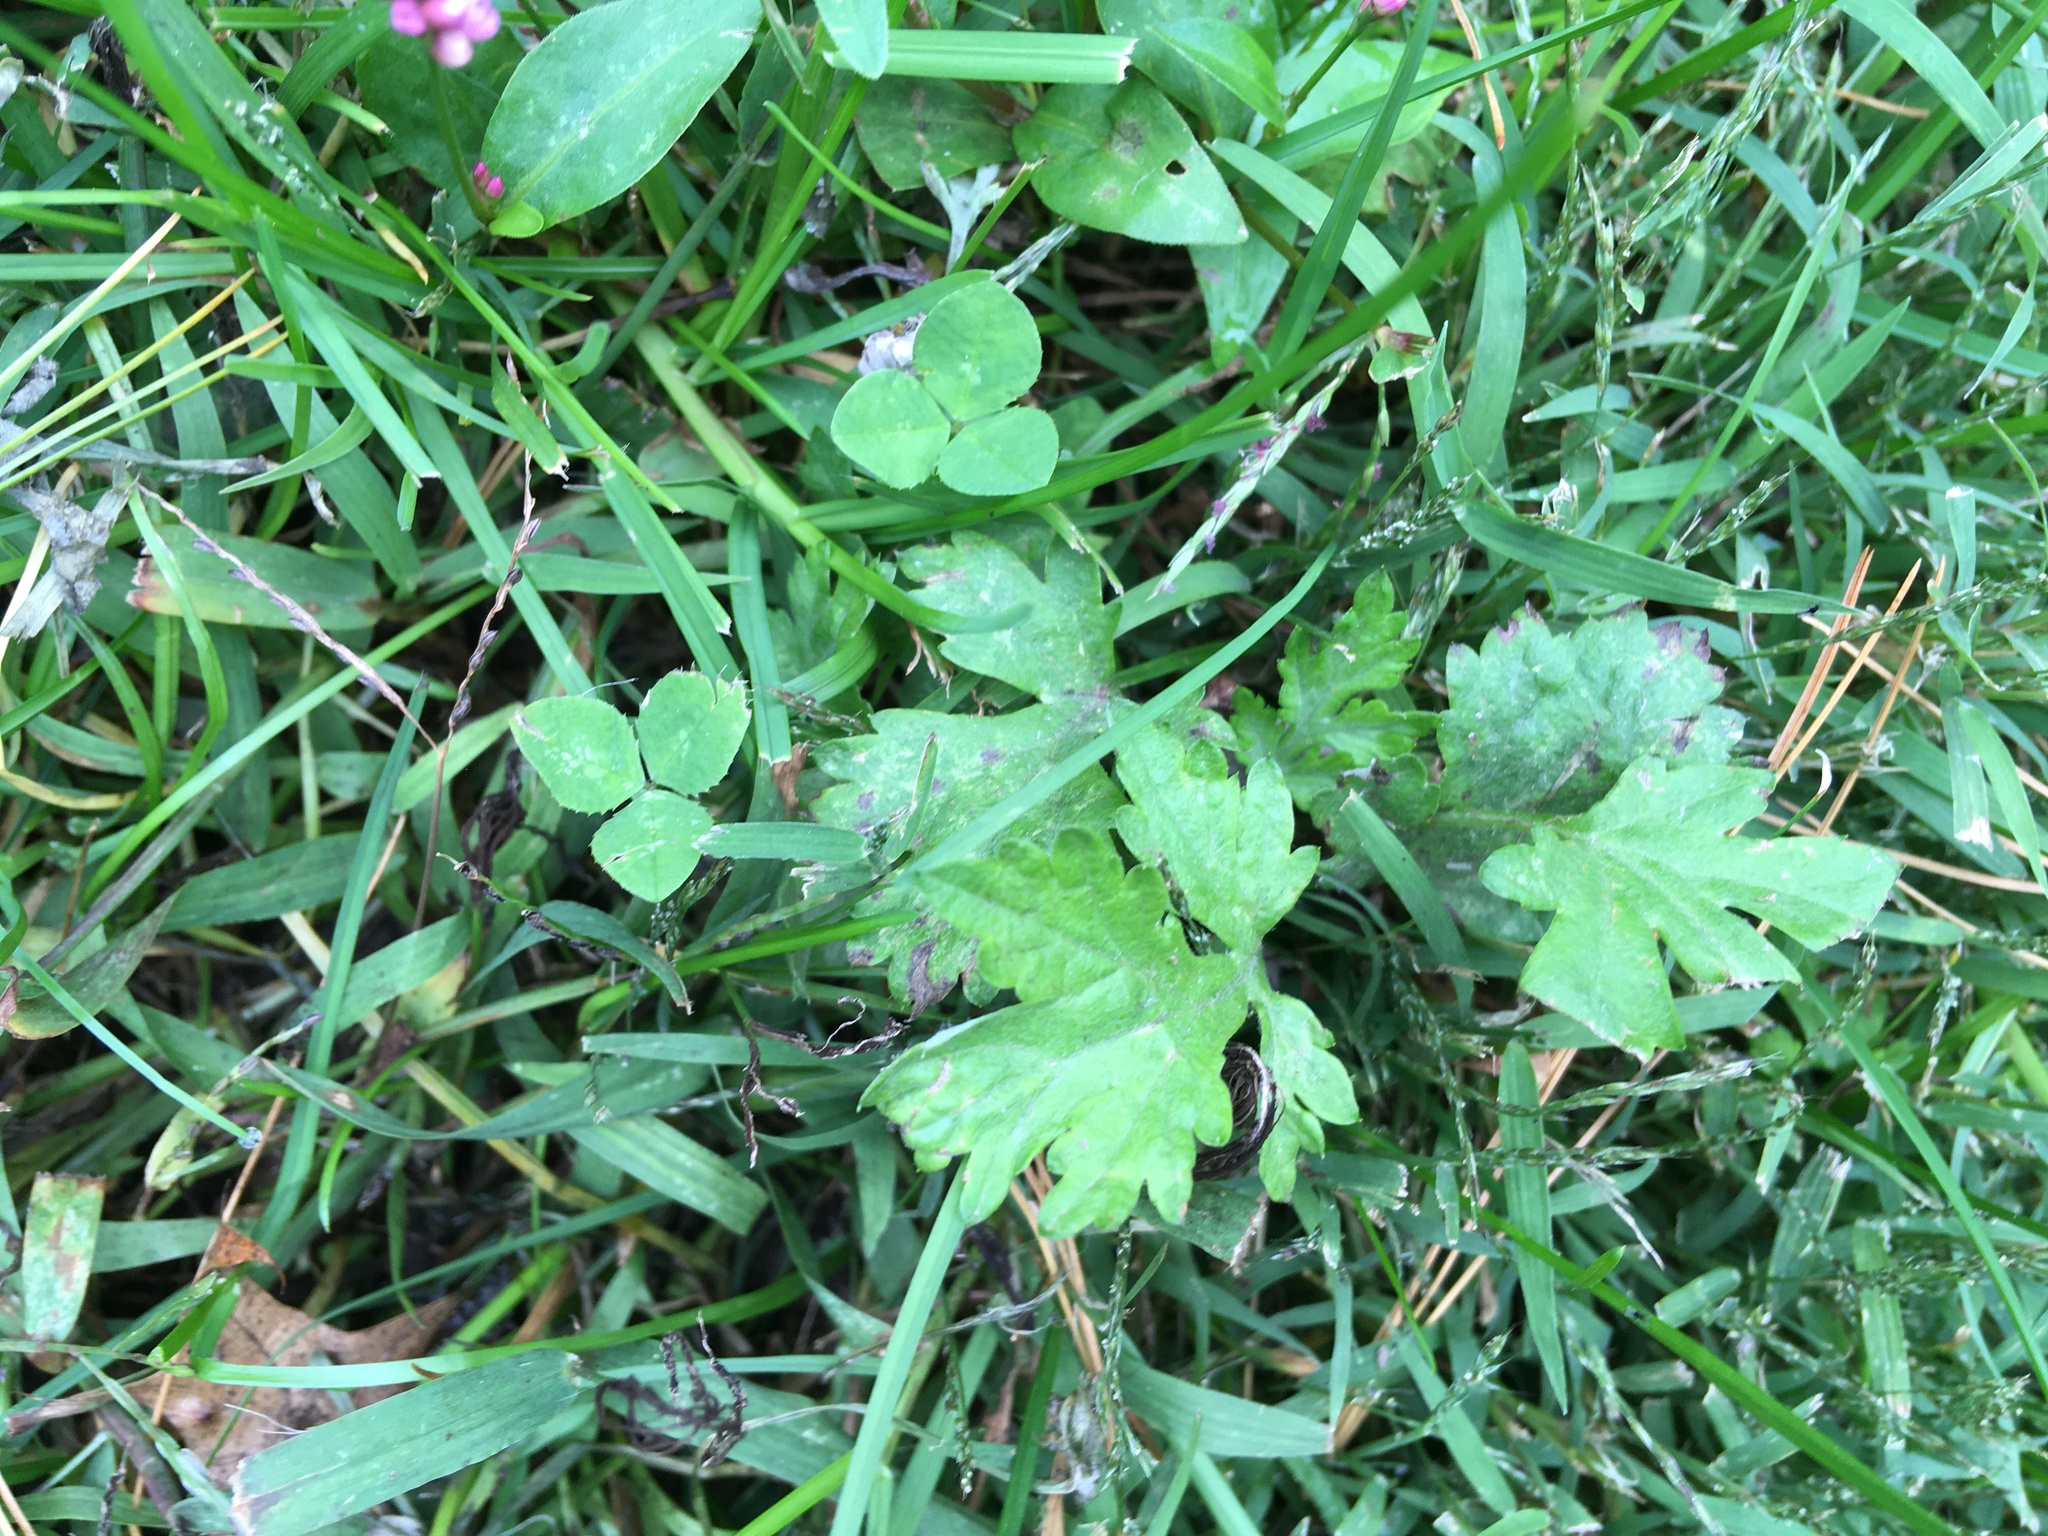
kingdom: Plantae
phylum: Tracheophyta
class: Magnoliopsida
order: Asterales
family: Asteraceae
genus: Artemisia
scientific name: Artemisia vulgaris
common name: Mugwort
